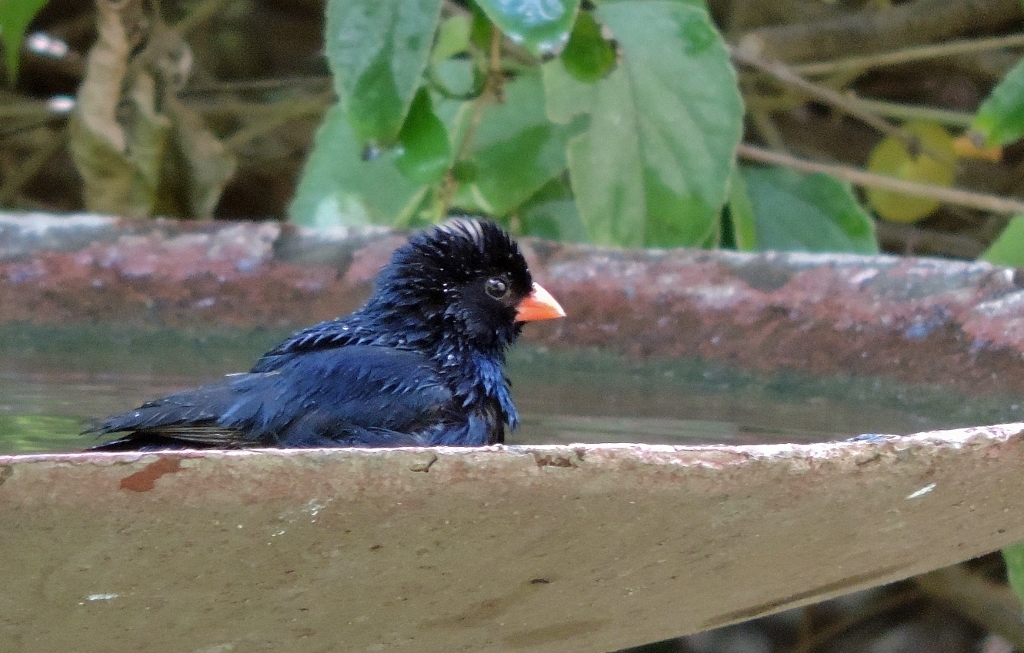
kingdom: Animalia
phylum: Chordata
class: Aves
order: Passeriformes
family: Viduidae
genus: Vidua
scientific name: Vidua chalybeata
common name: Village indigobird
